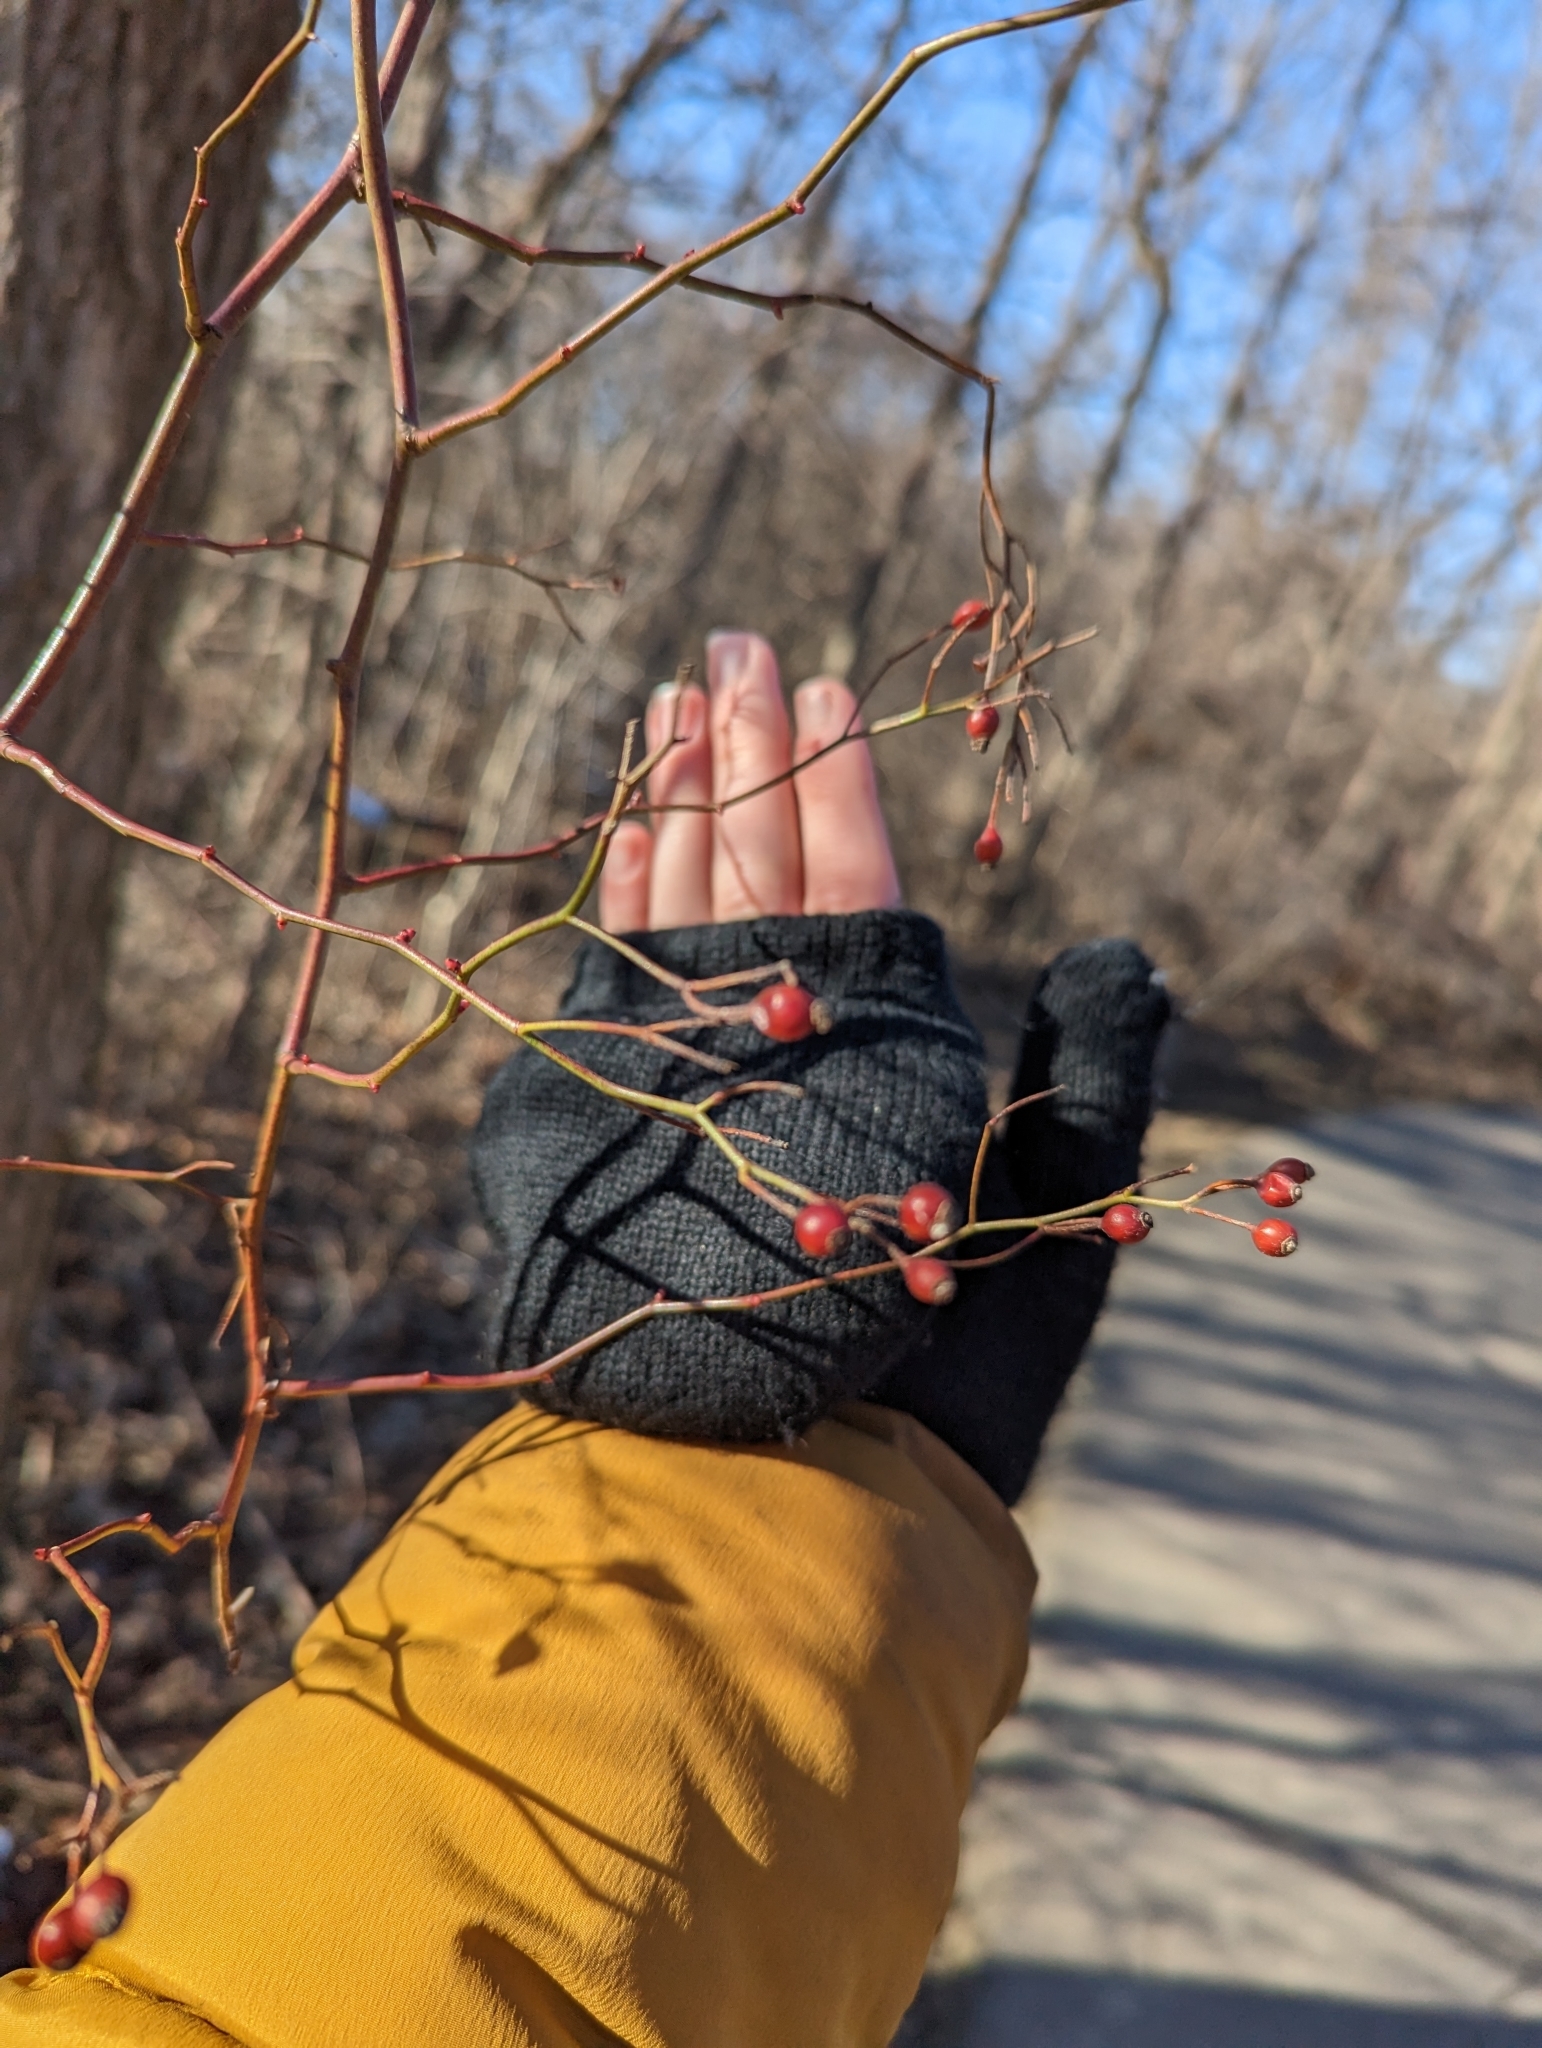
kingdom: Plantae
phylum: Tracheophyta
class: Magnoliopsida
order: Rosales
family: Rosaceae
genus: Rosa
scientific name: Rosa multiflora
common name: Multiflora rose
